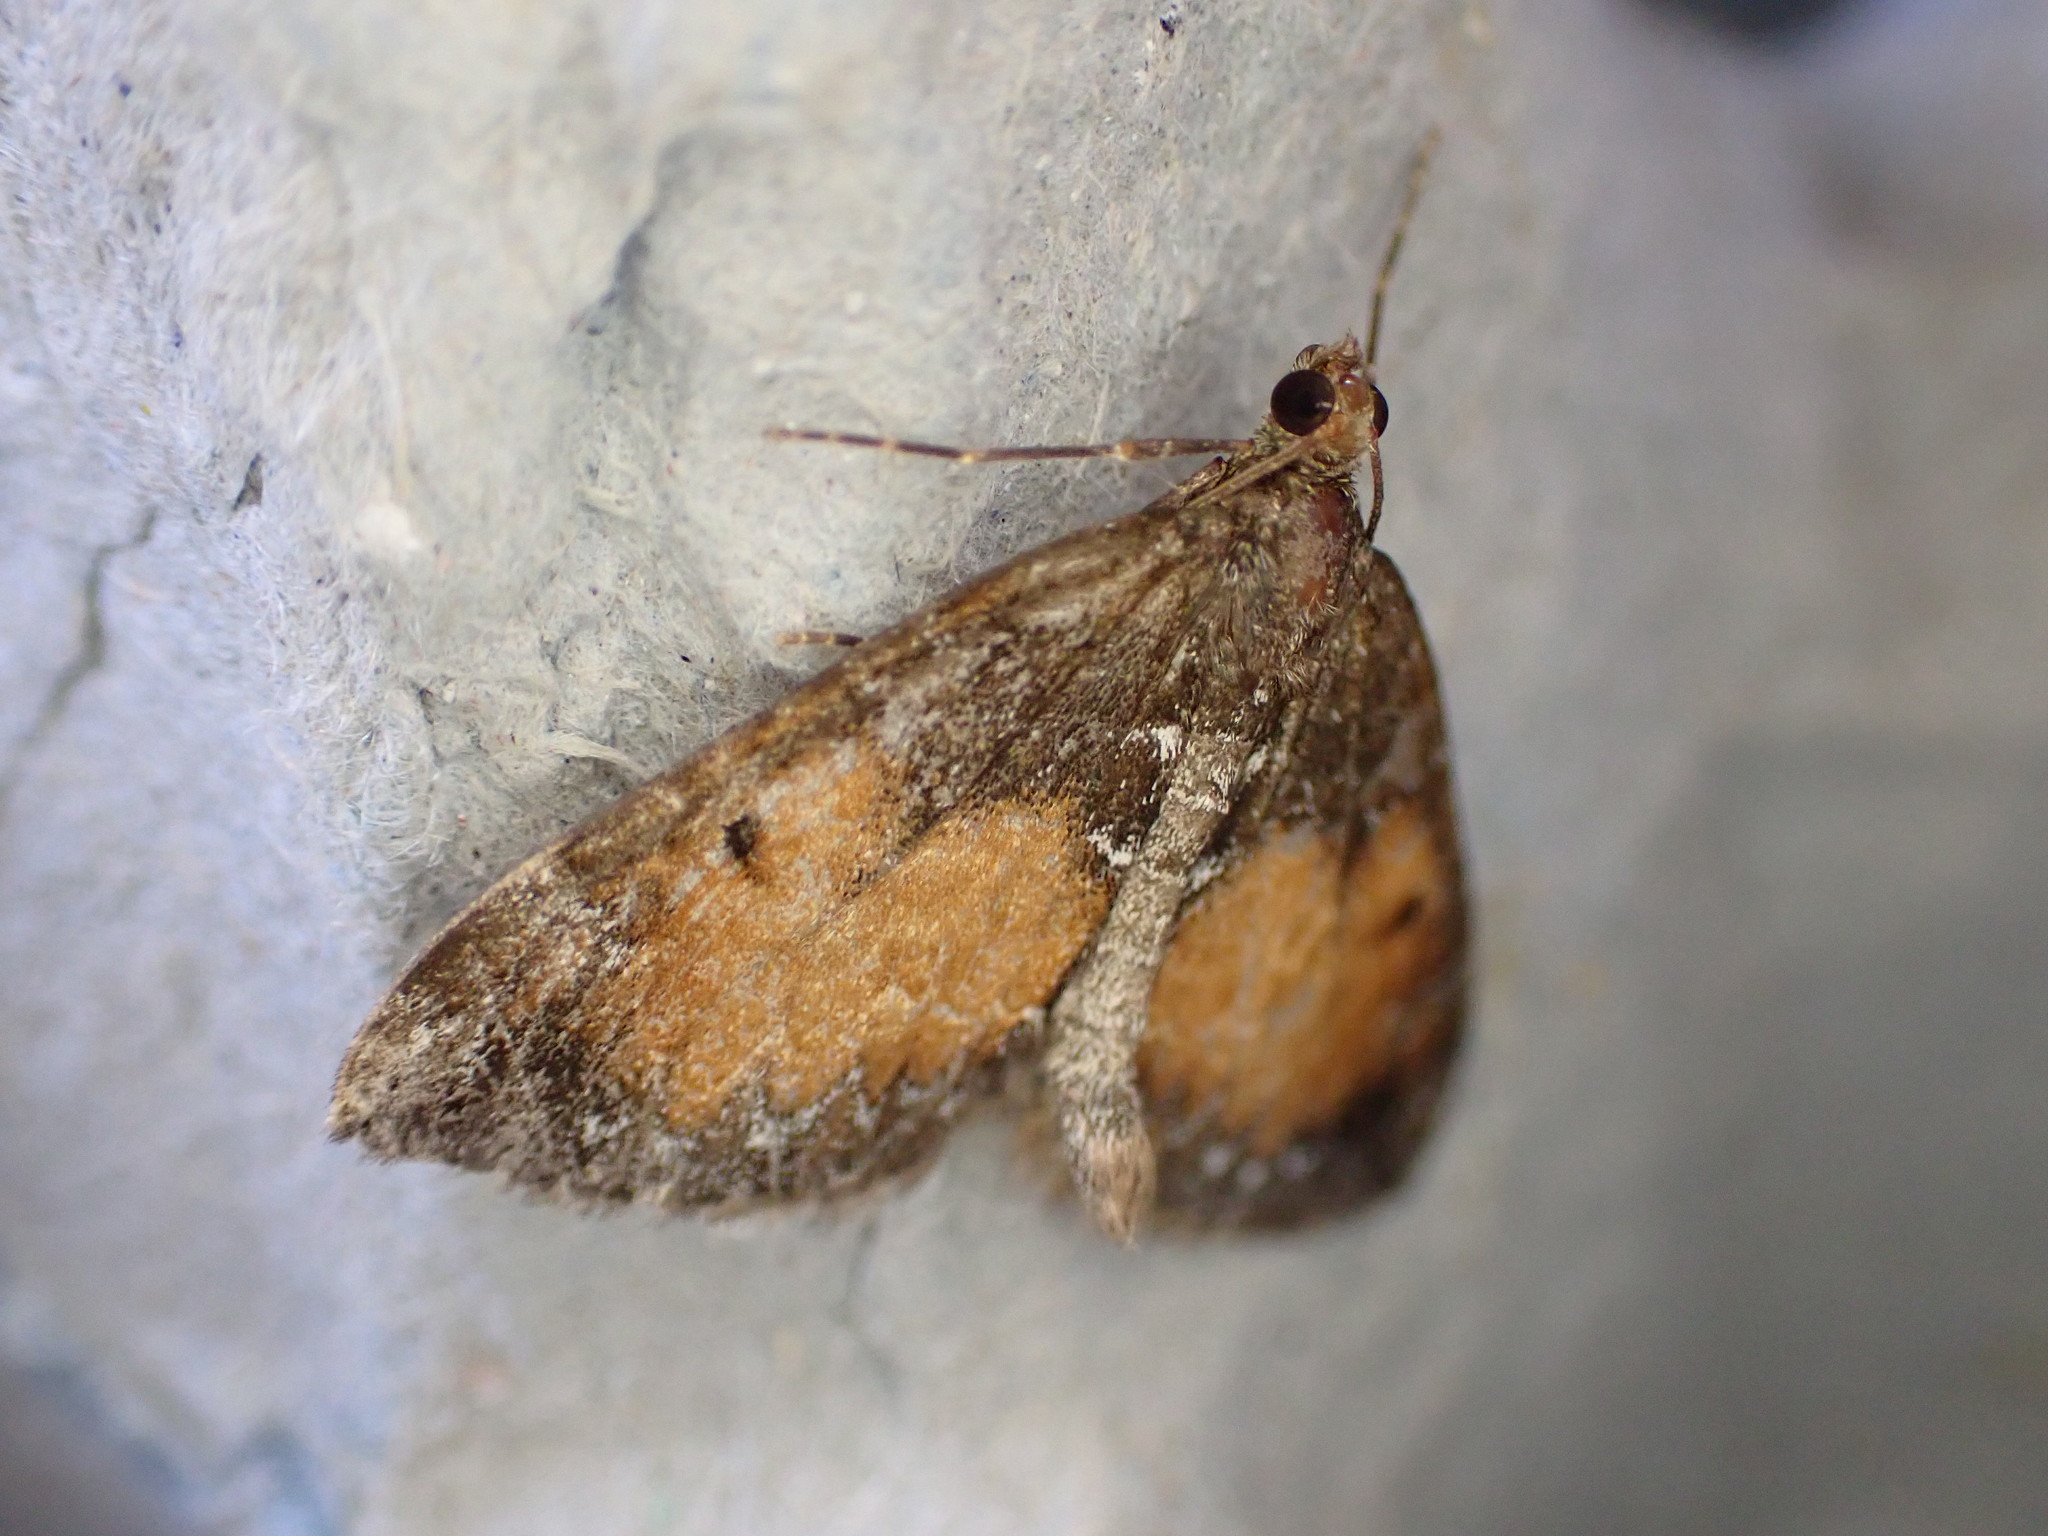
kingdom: Animalia
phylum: Arthropoda
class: Insecta
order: Lepidoptera
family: Geometridae
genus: Dysstroma
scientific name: Dysstroma truncata
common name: Common marbled carpet
